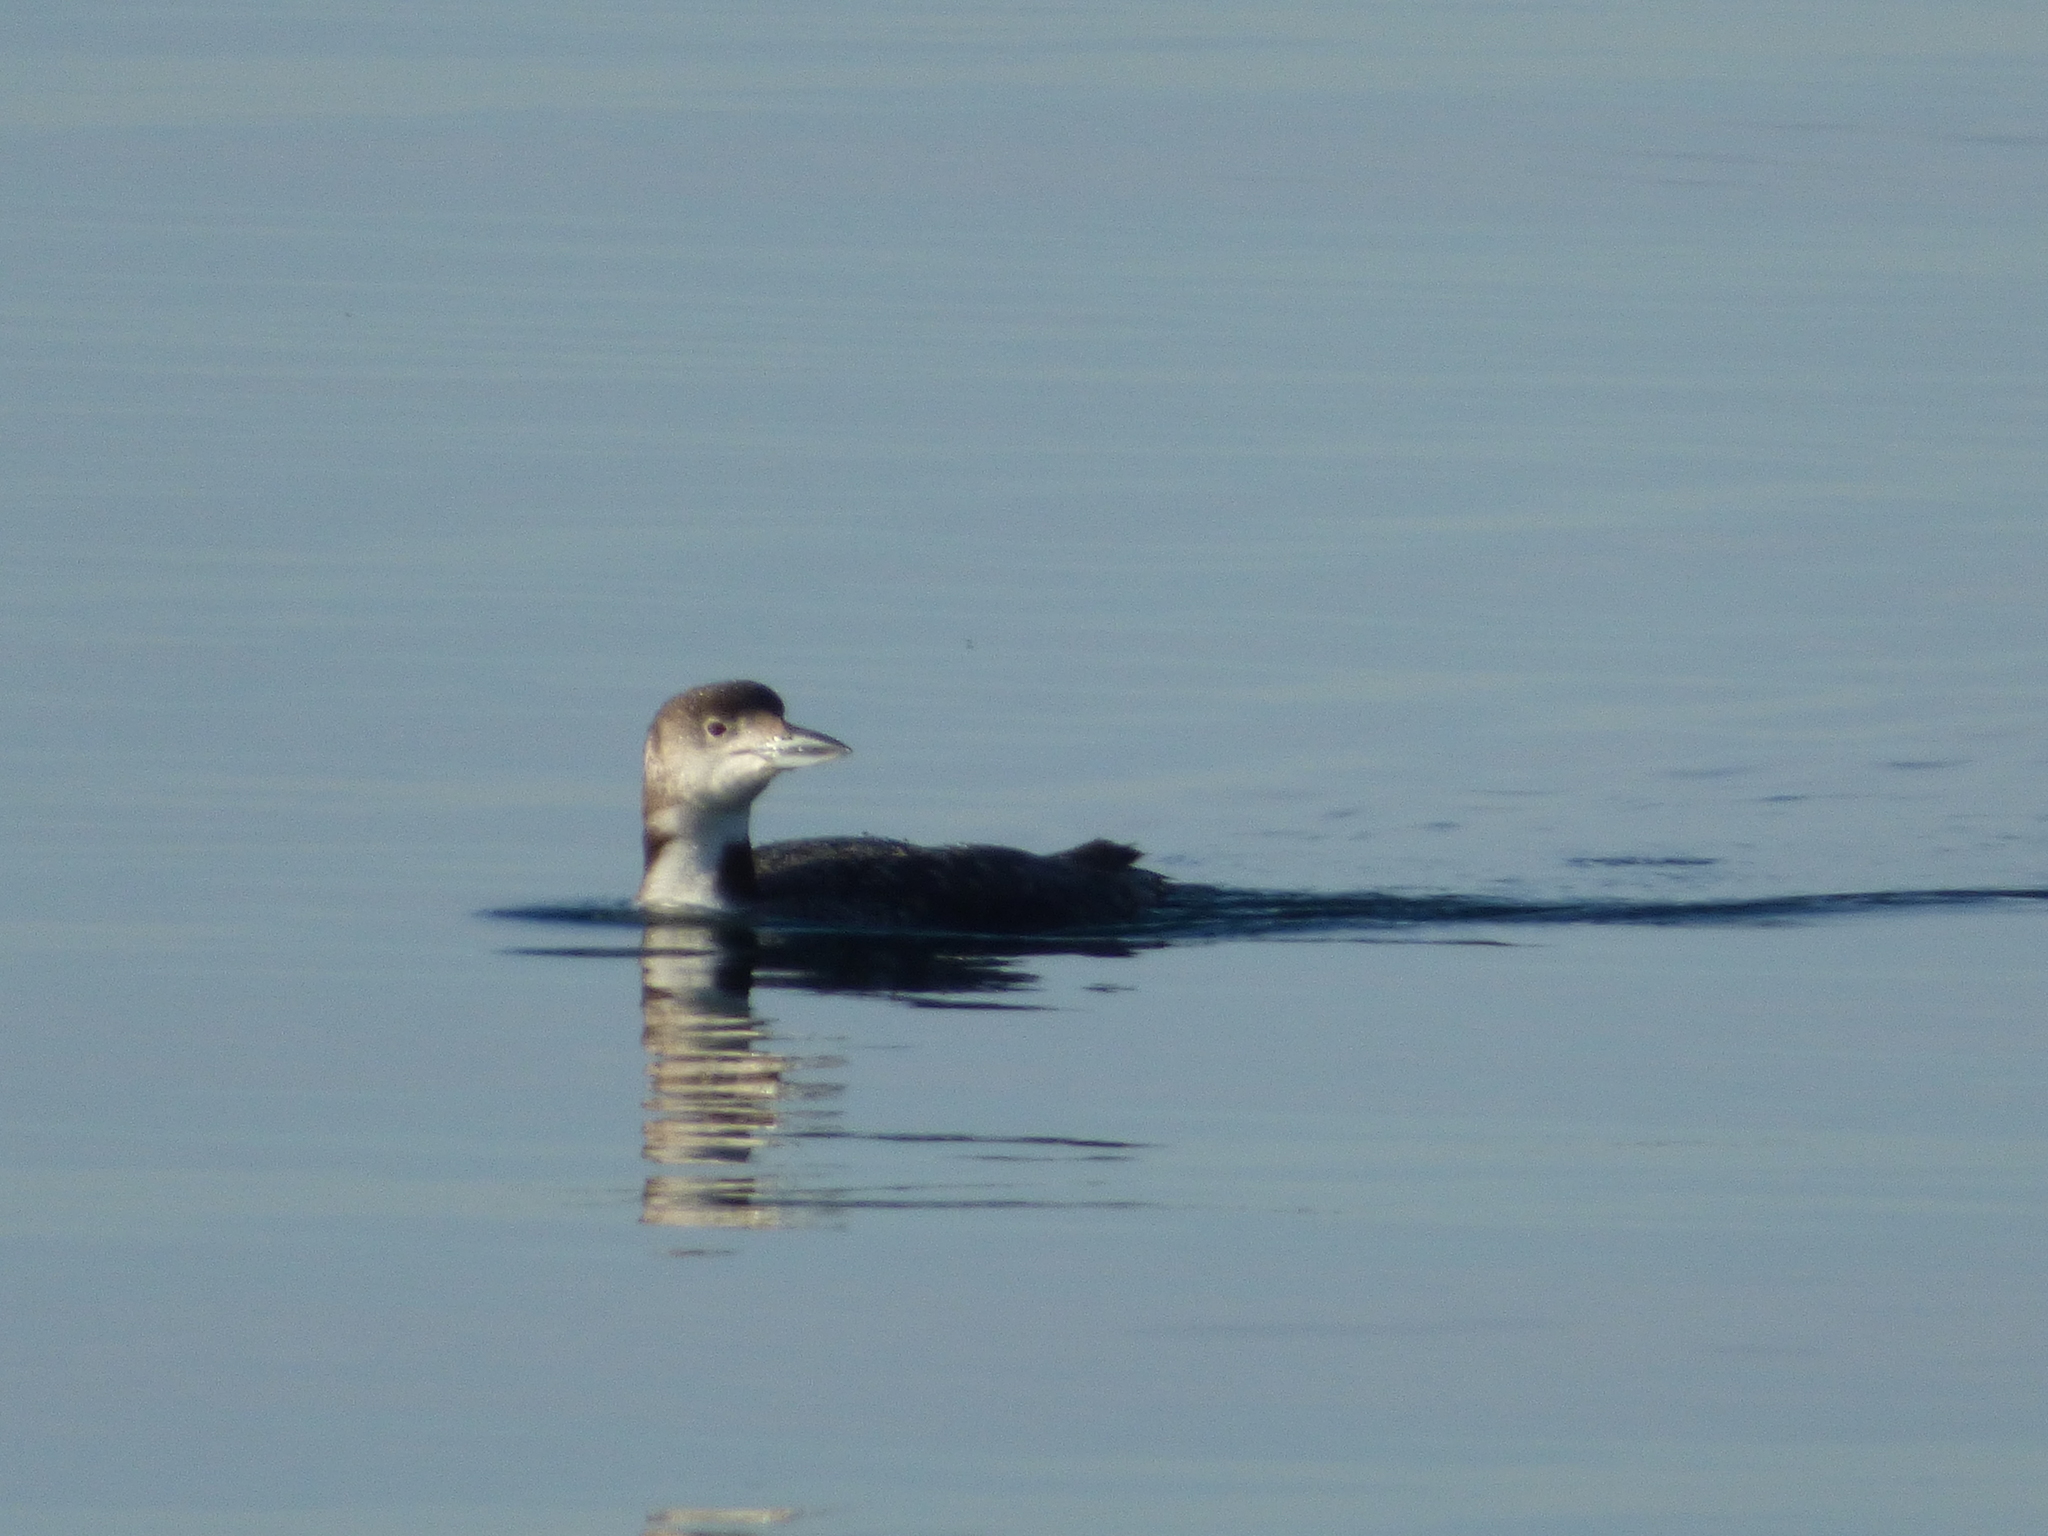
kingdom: Animalia
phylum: Chordata
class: Aves
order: Gaviiformes
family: Gaviidae
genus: Gavia
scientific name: Gavia immer
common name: Common loon
